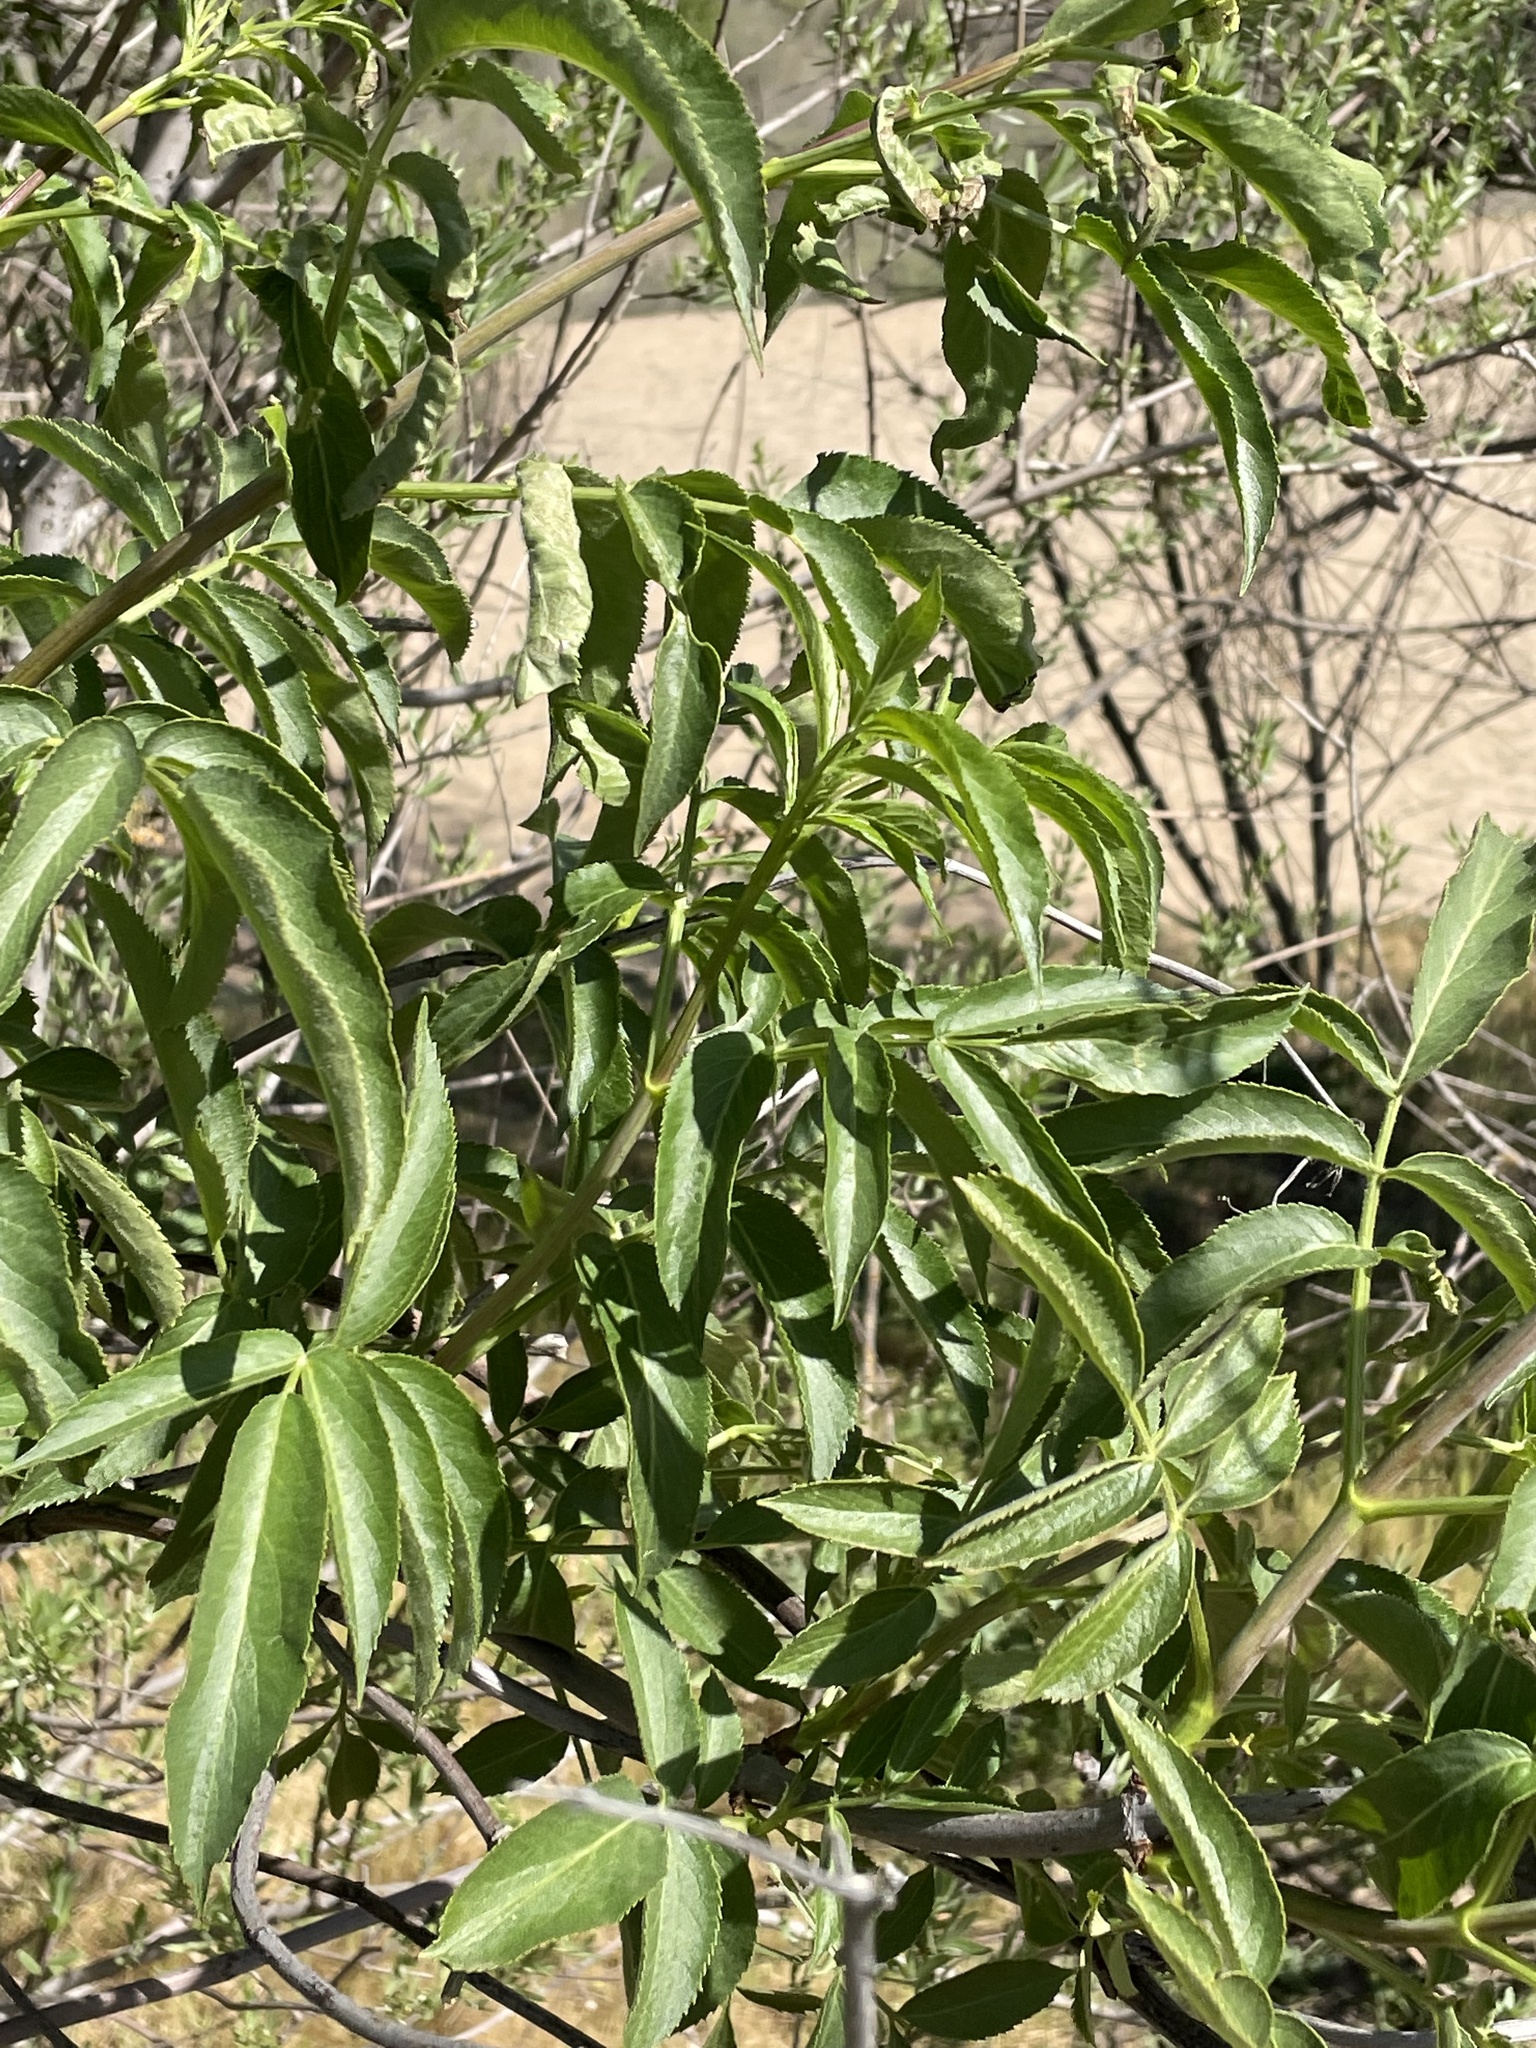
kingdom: Plantae
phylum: Tracheophyta
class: Magnoliopsida
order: Dipsacales
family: Viburnaceae
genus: Sambucus
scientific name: Sambucus cerulea
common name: Blue elder
